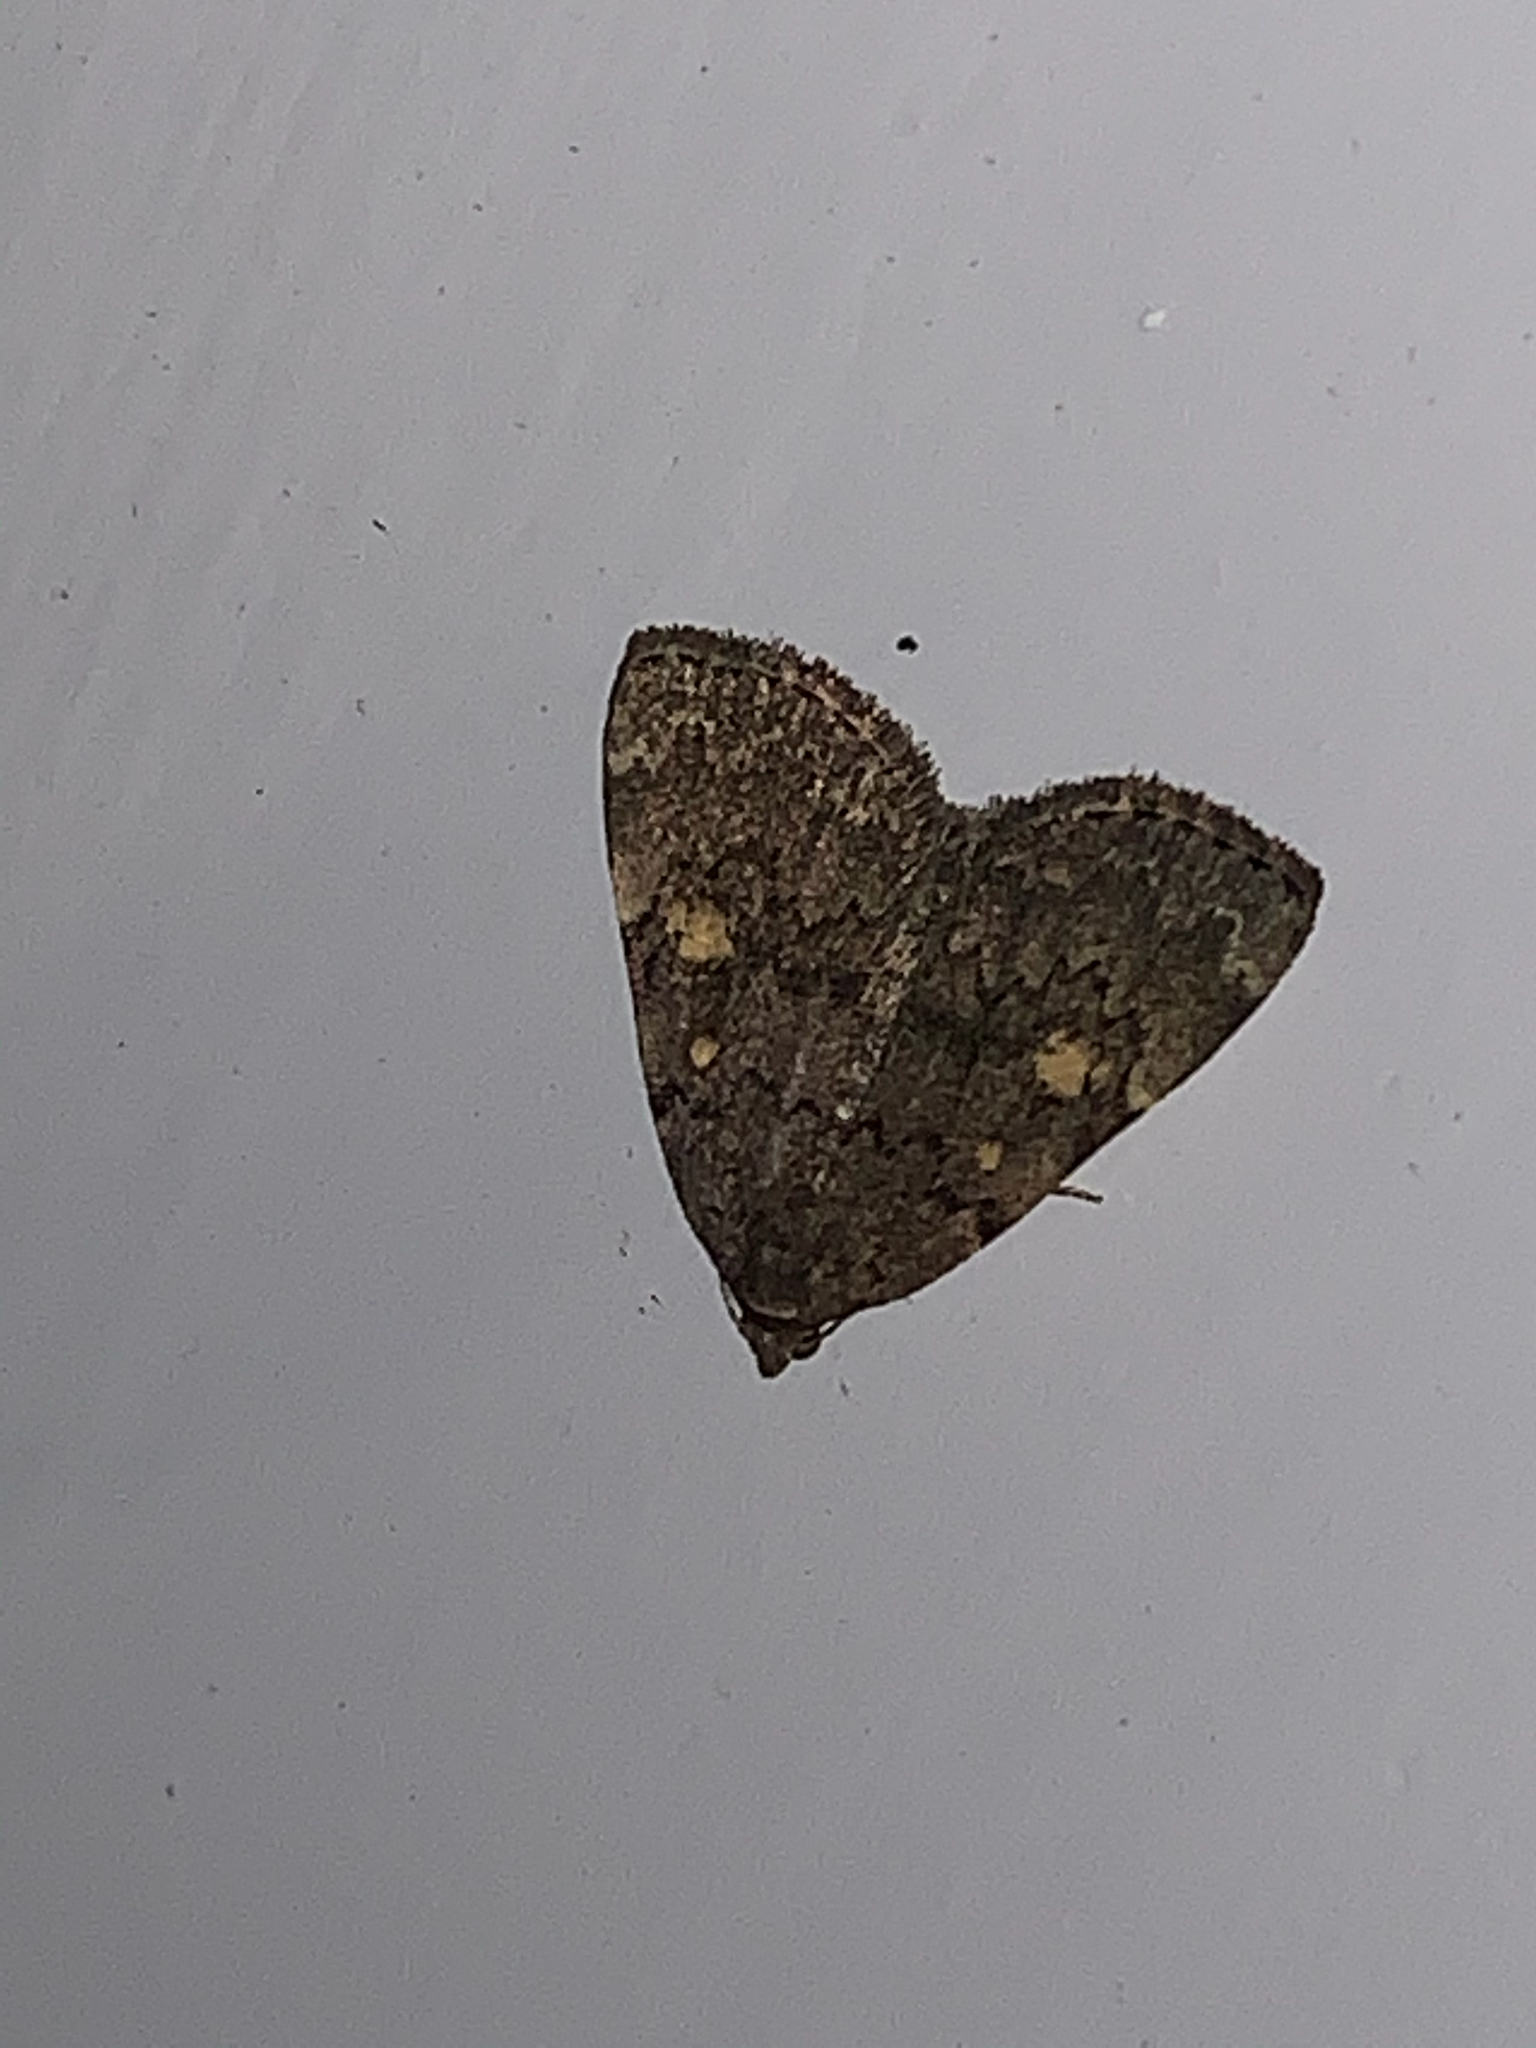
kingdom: Animalia
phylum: Arthropoda
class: Insecta
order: Lepidoptera
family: Erebidae
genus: Idia
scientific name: Idia aemula
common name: Common idia moth
